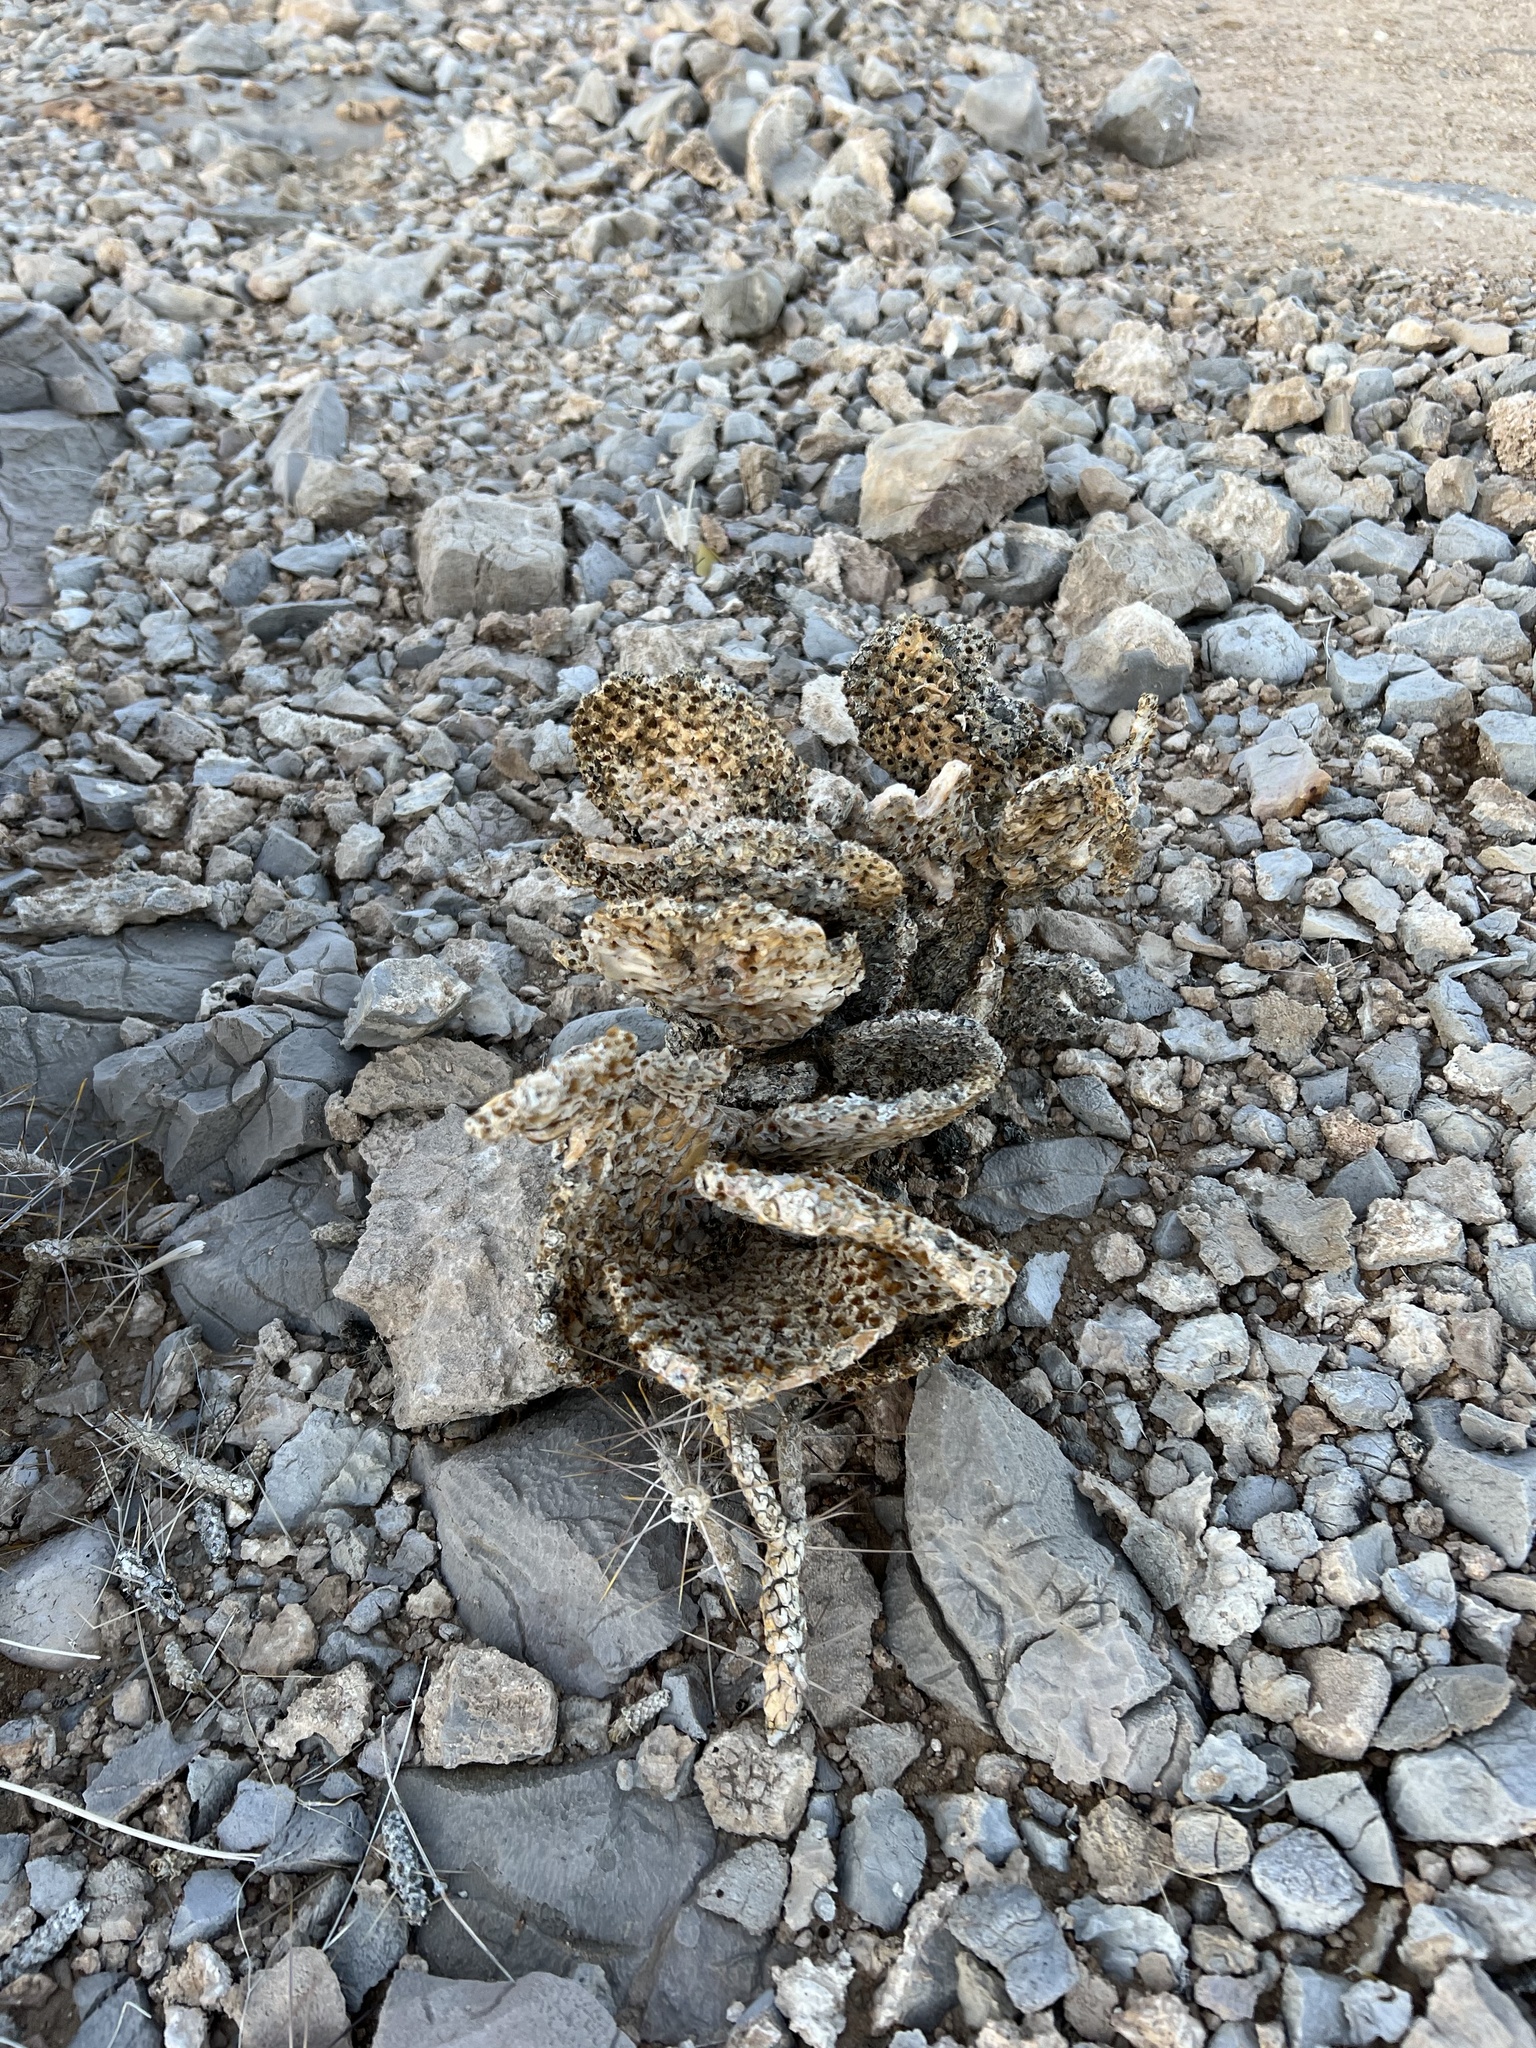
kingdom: Plantae
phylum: Tracheophyta
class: Magnoliopsida
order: Caryophyllales
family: Cactaceae
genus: Opuntia
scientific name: Opuntia basilaris
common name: Beavertail prickly-pear
